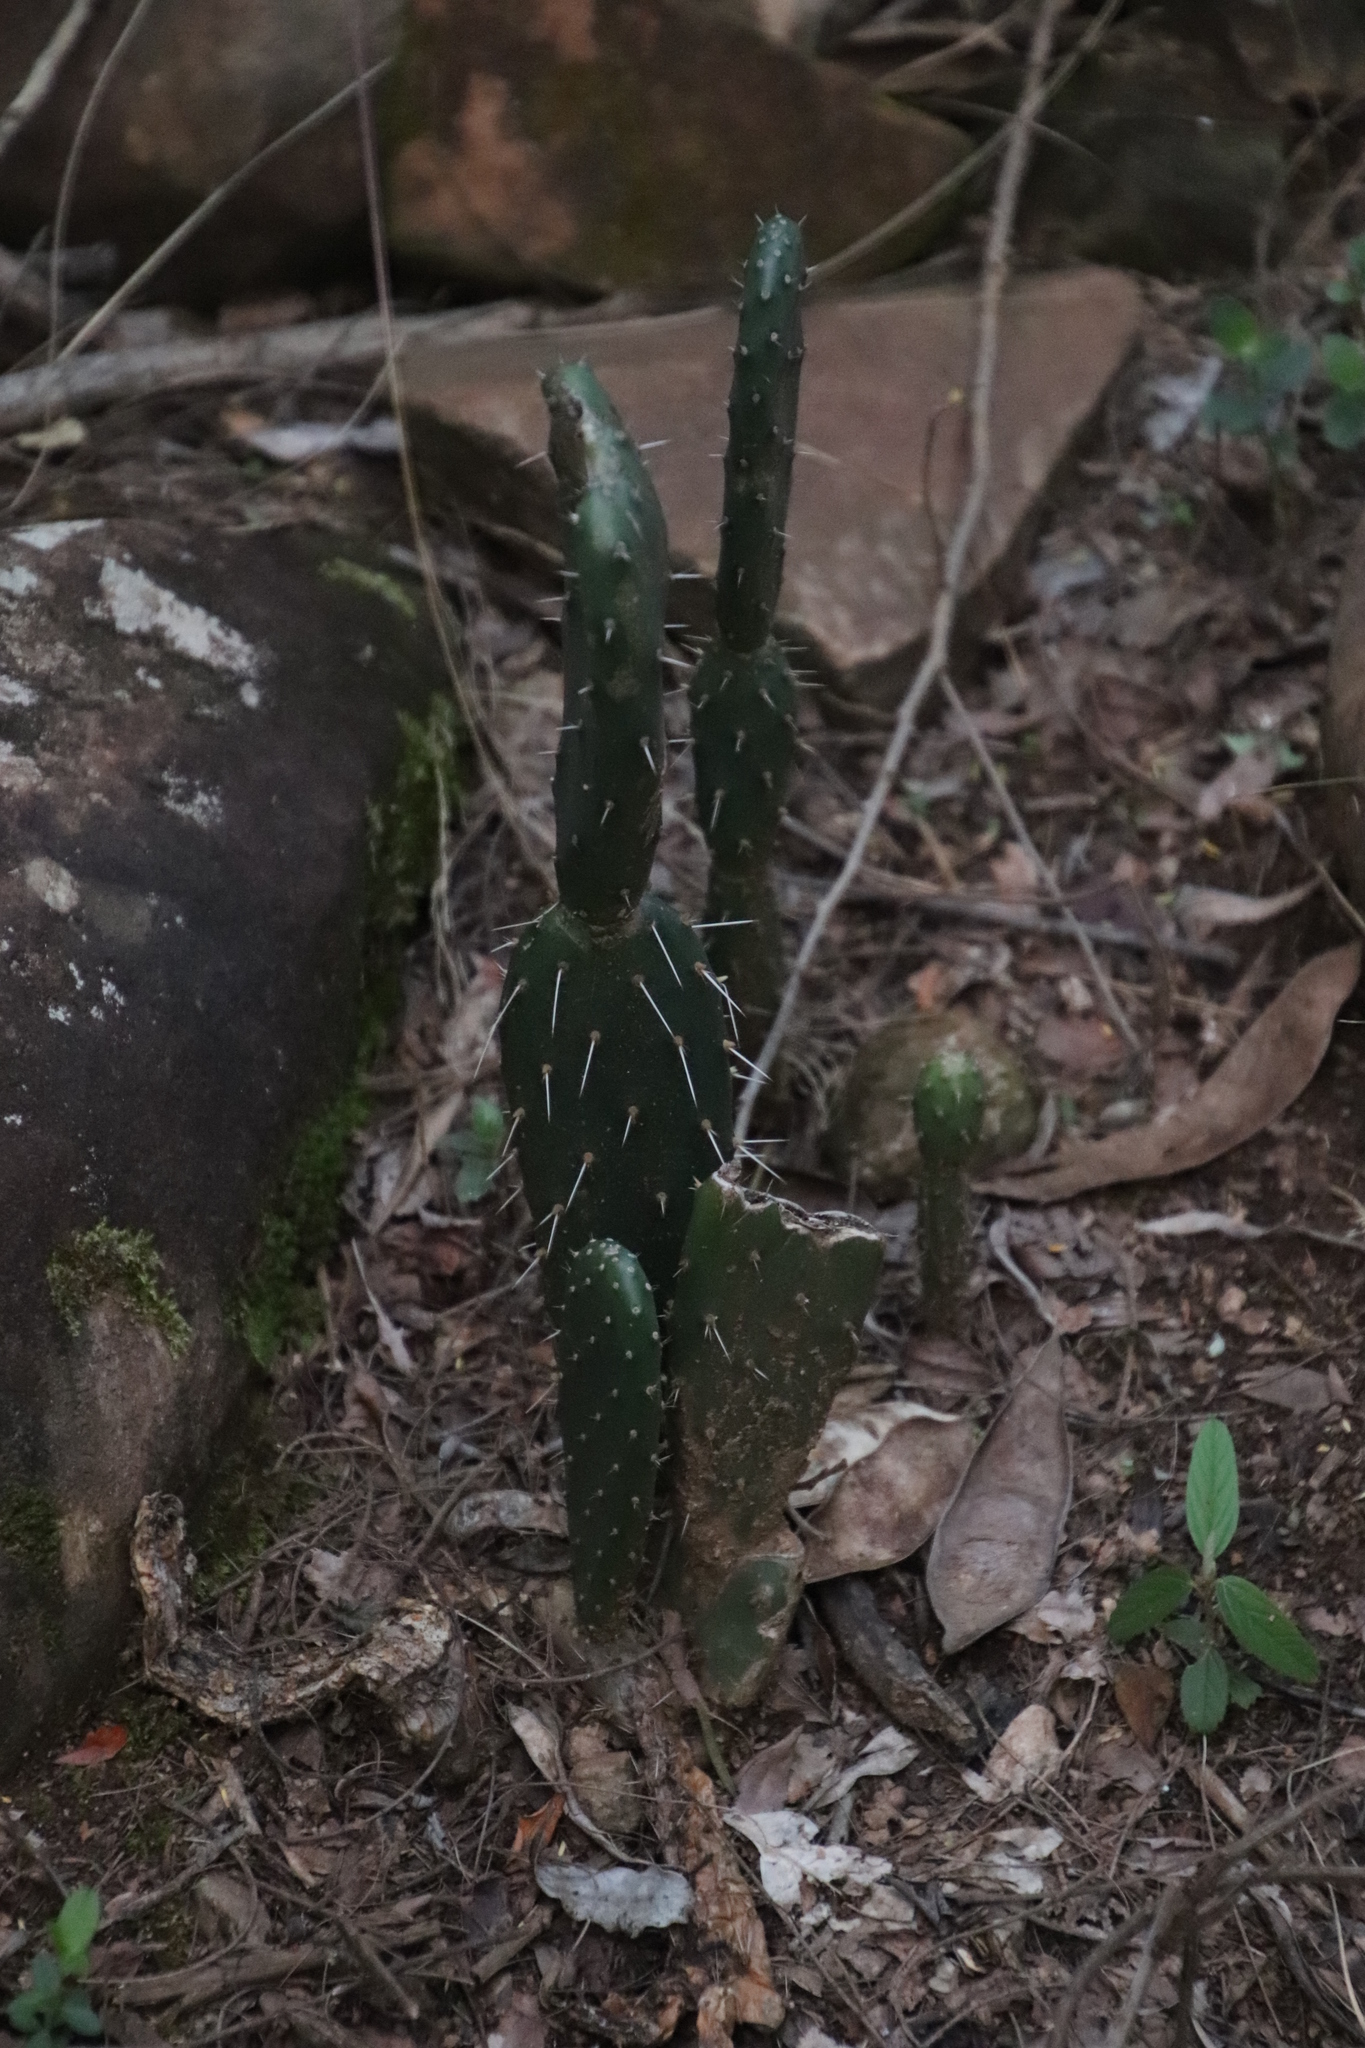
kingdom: Plantae
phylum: Tracheophyta
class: Magnoliopsida
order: Caryophyllales
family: Cactaceae
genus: Opuntia
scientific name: Opuntia ficus-indica
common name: Barbary fig
